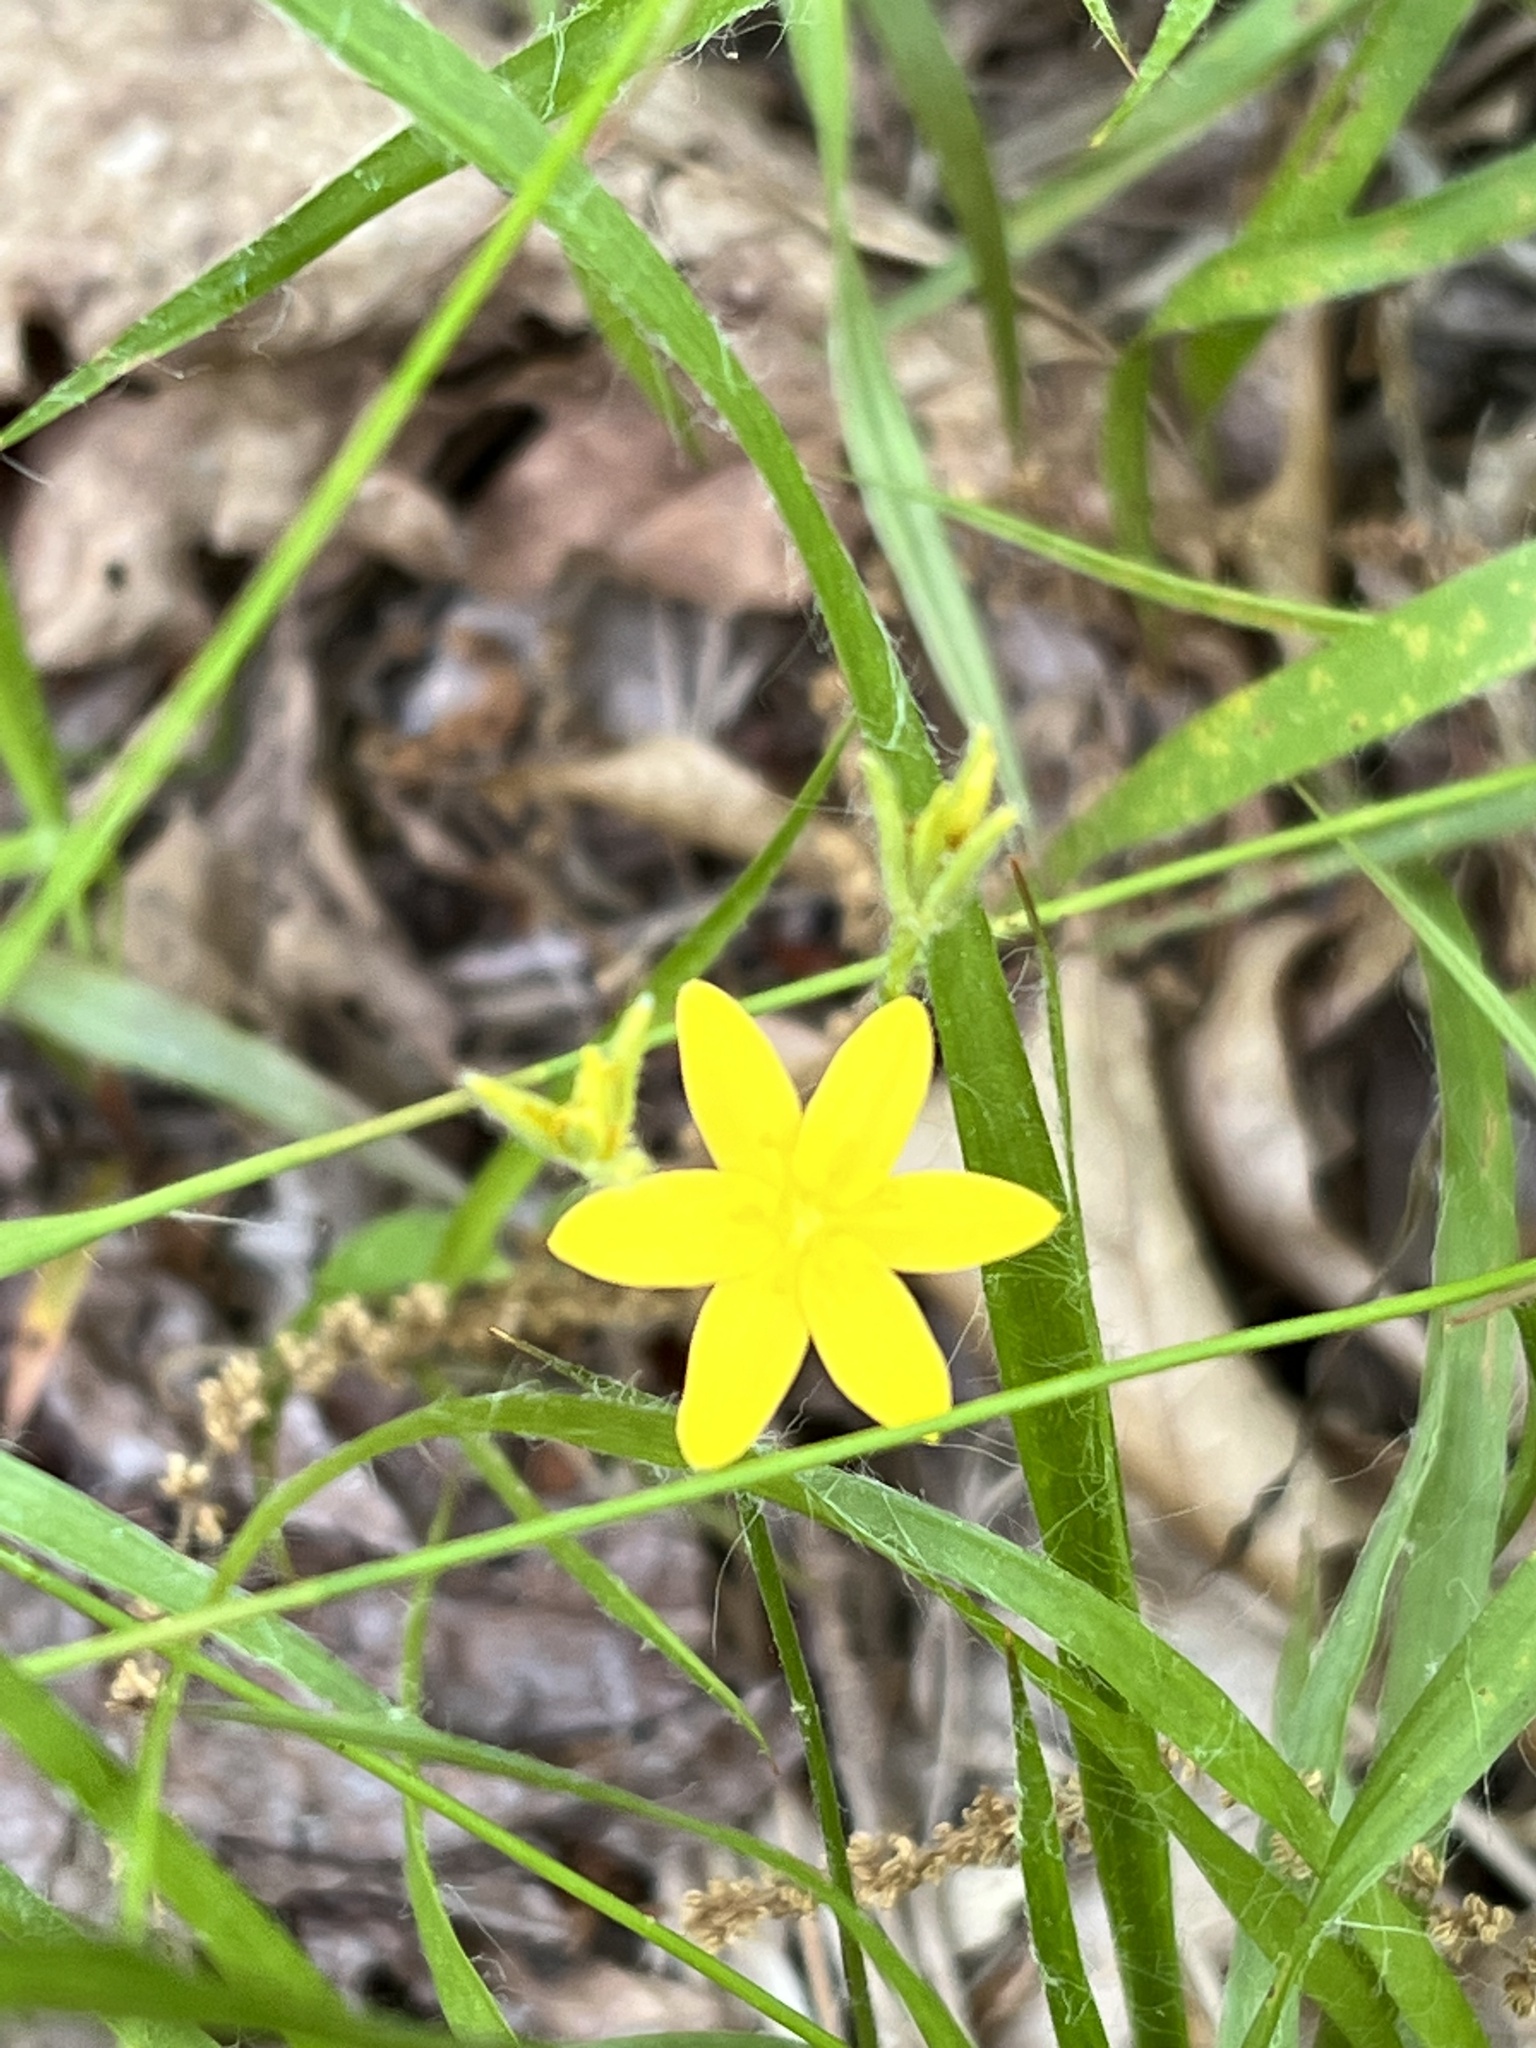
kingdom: Plantae
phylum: Tracheophyta
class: Liliopsida
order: Asparagales
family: Hypoxidaceae
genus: Hypoxis
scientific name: Hypoxis hirsuta
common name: Common goldstar
